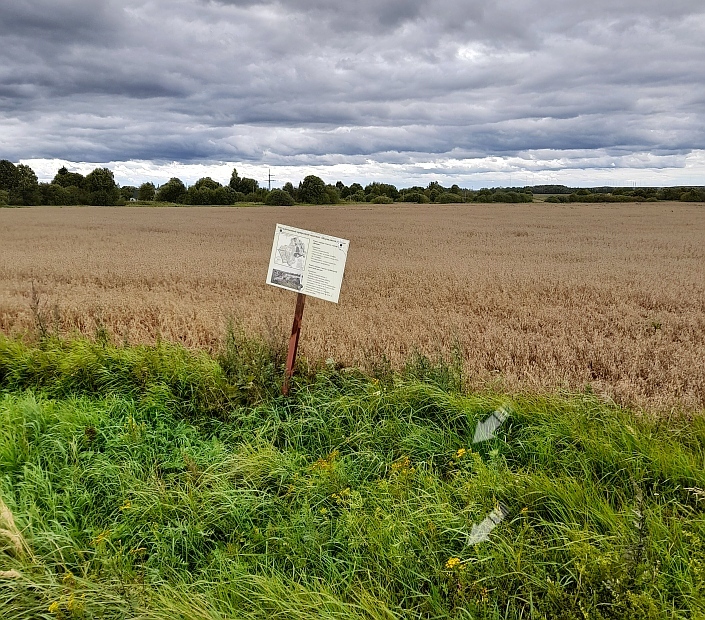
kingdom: Plantae
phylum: Tracheophyta
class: Magnoliopsida
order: Asterales
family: Asteraceae
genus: Tanacetum
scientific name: Tanacetum vulgare
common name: Common tansy
